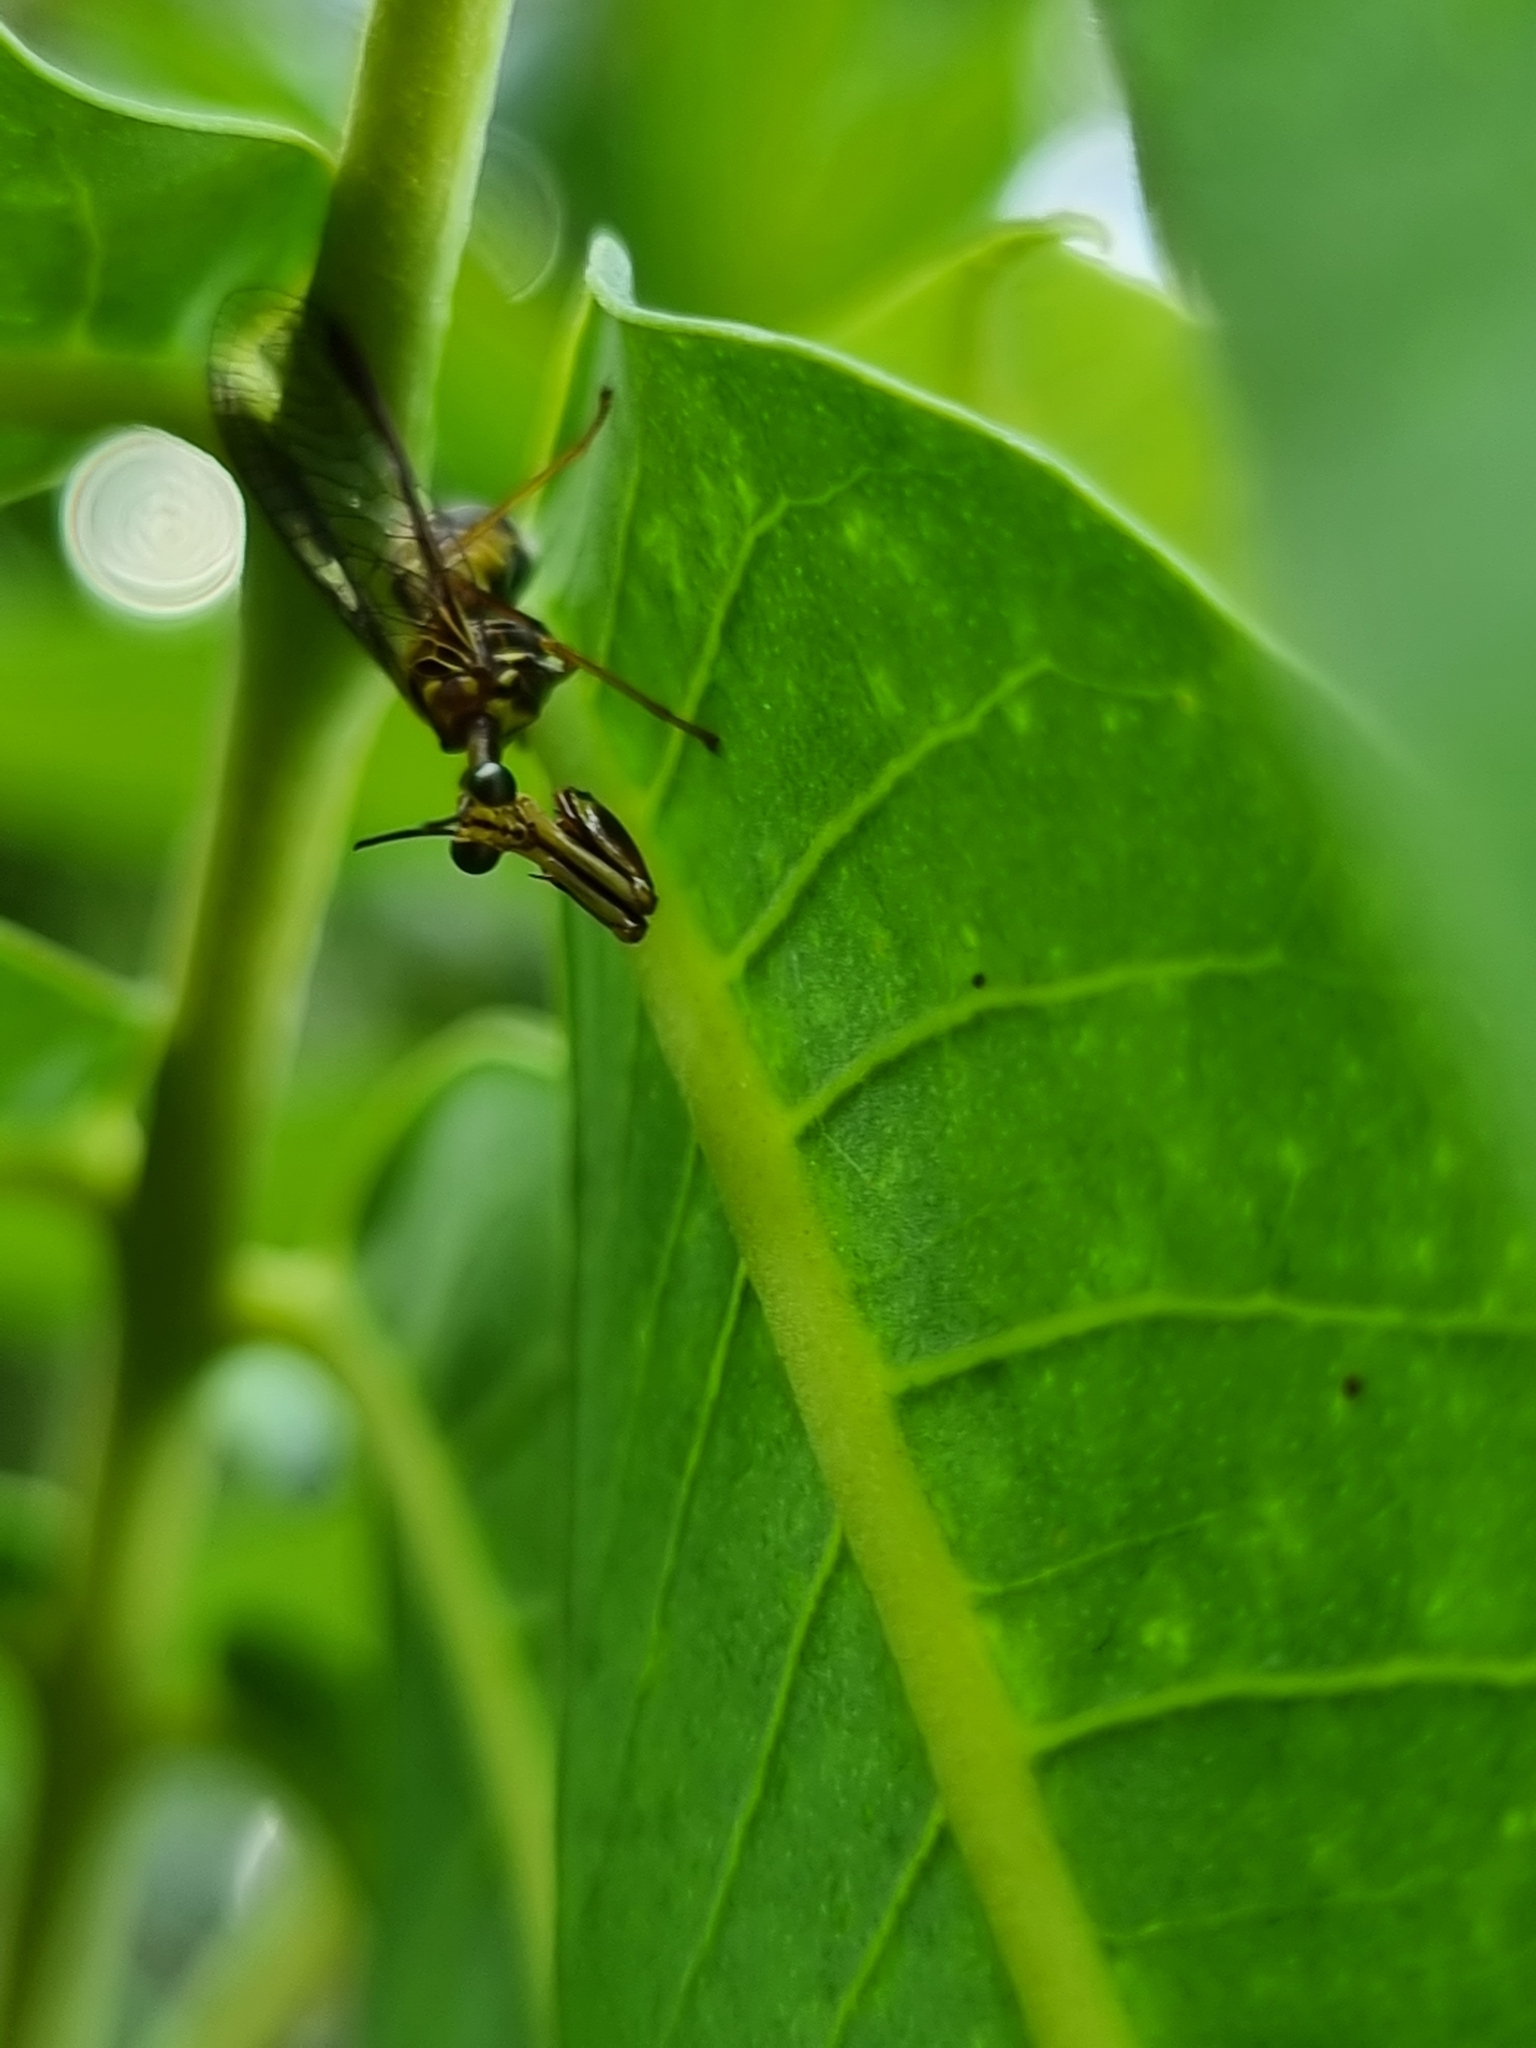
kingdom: Animalia
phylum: Arthropoda
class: Insecta
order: Neuroptera
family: Mantispidae
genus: Spaminta
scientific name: Spaminta minjerribae
